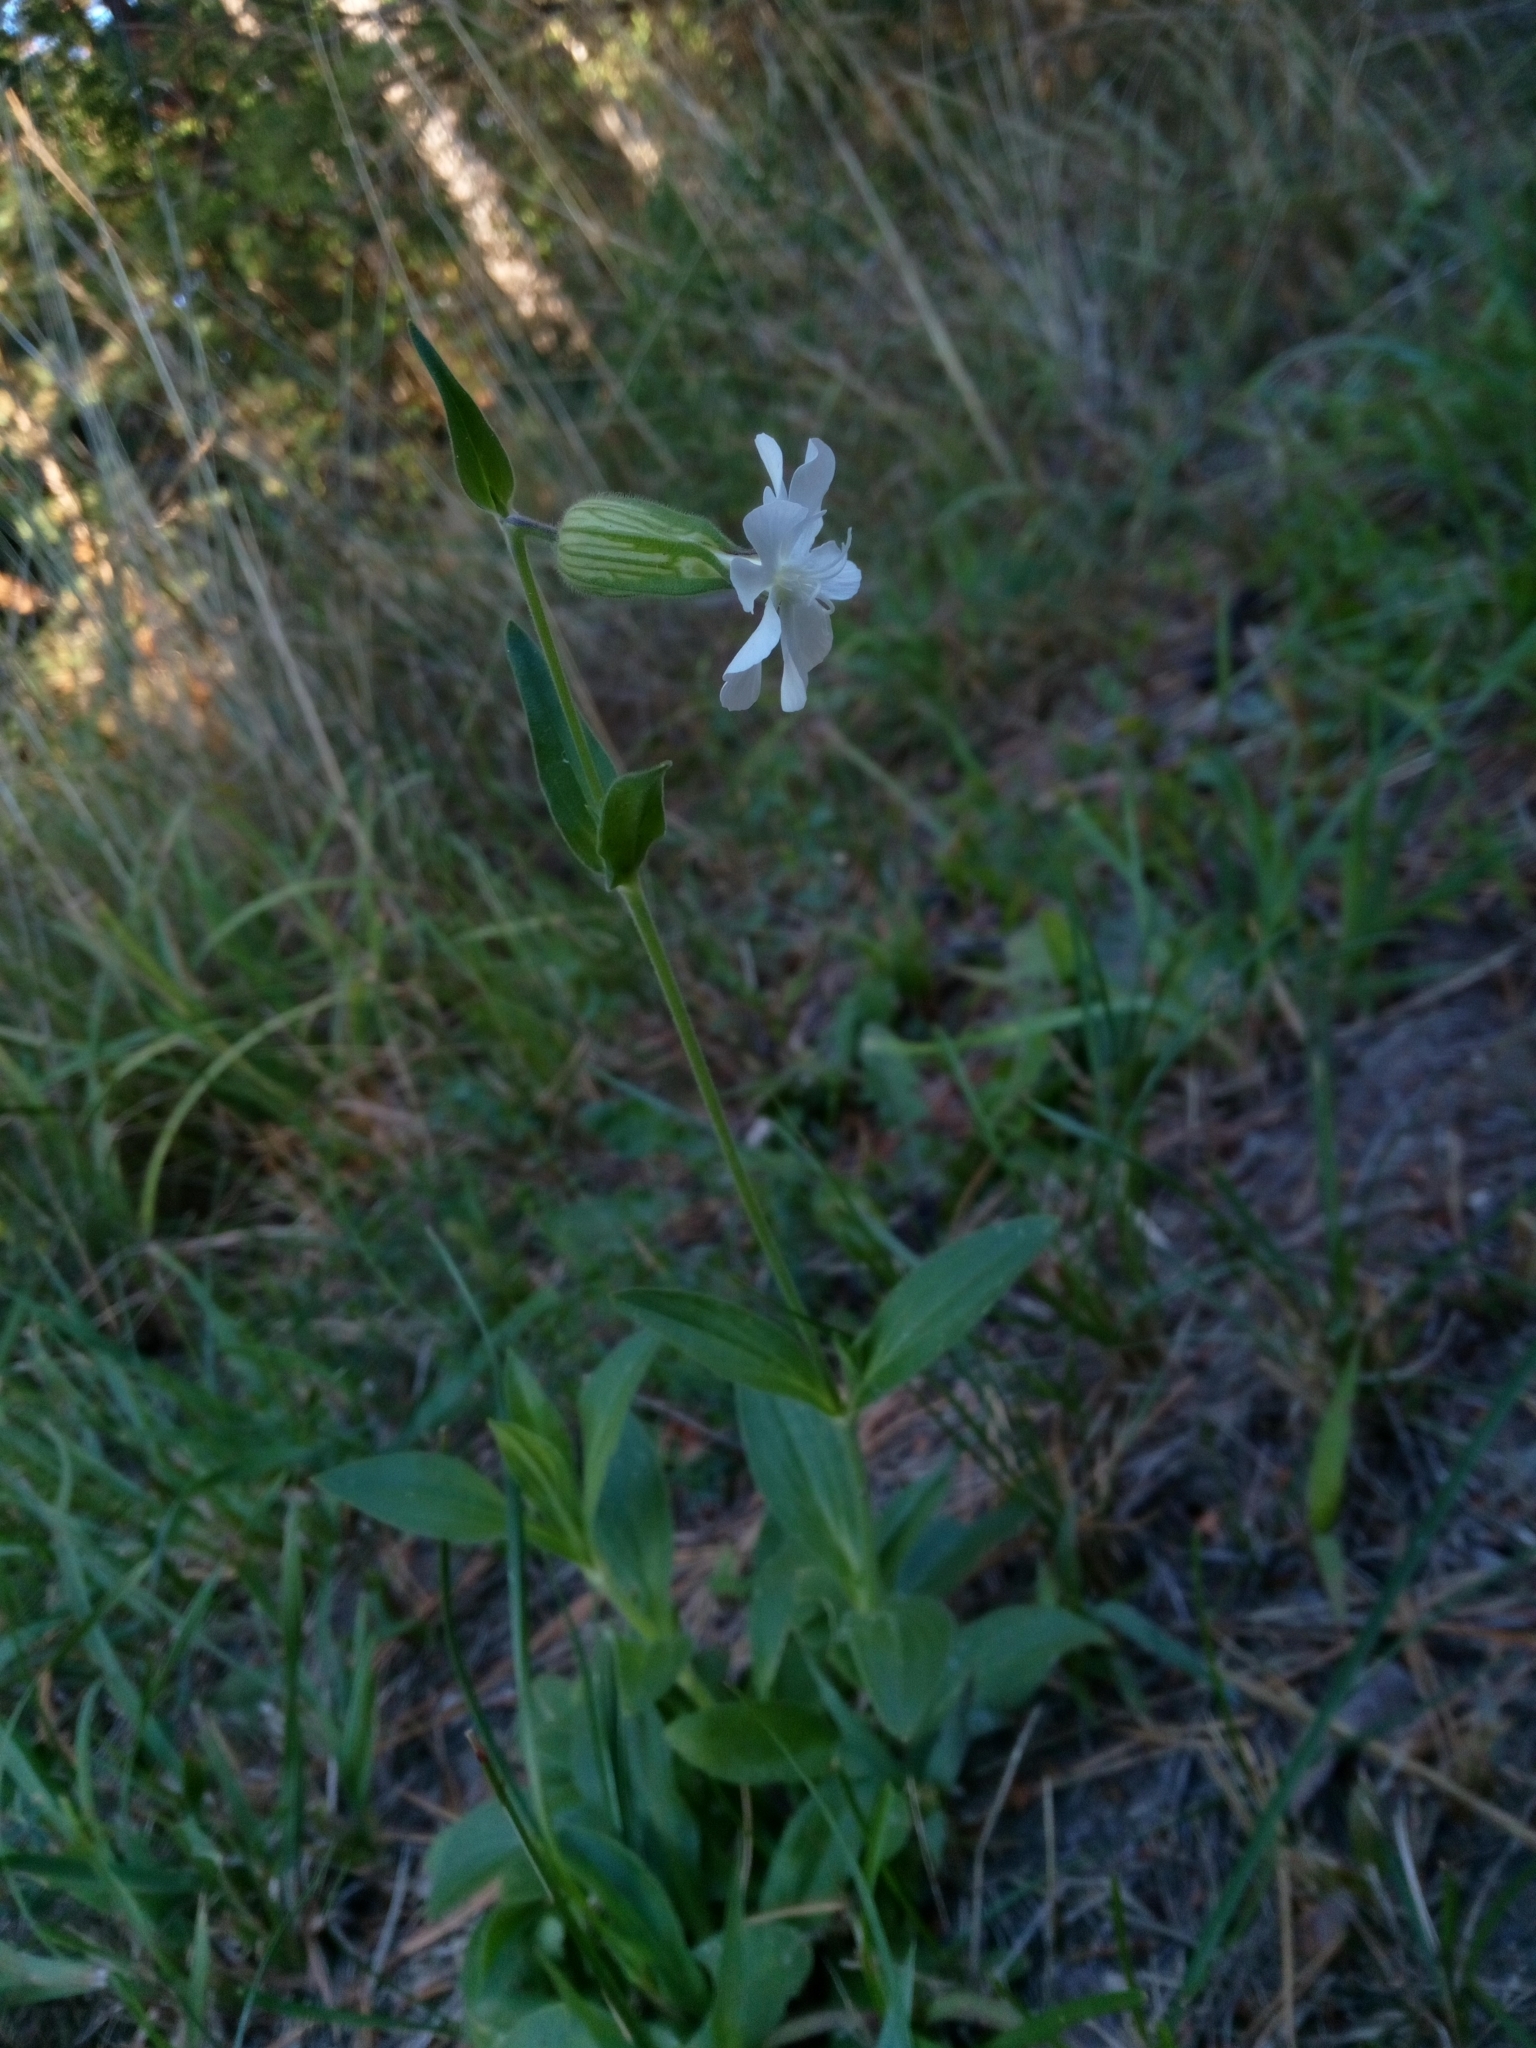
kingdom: Plantae
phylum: Tracheophyta
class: Magnoliopsida
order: Caryophyllales
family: Caryophyllaceae
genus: Silene
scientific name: Silene latifolia
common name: White campion
